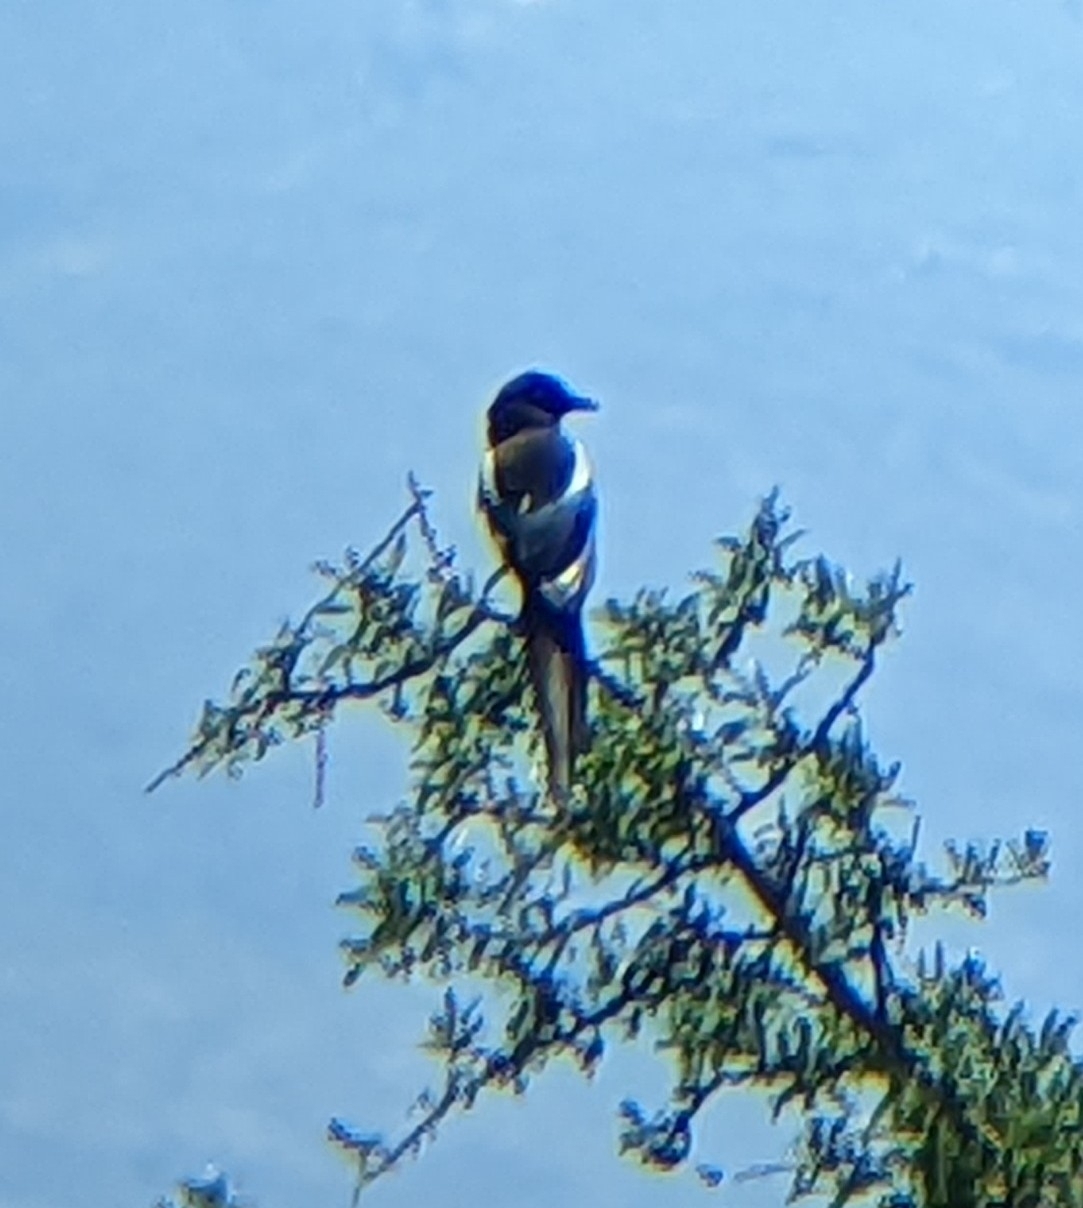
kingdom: Animalia
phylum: Chordata
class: Aves
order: Passeriformes
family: Corvidae
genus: Pica
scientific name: Pica pica
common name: Eurasian magpie
